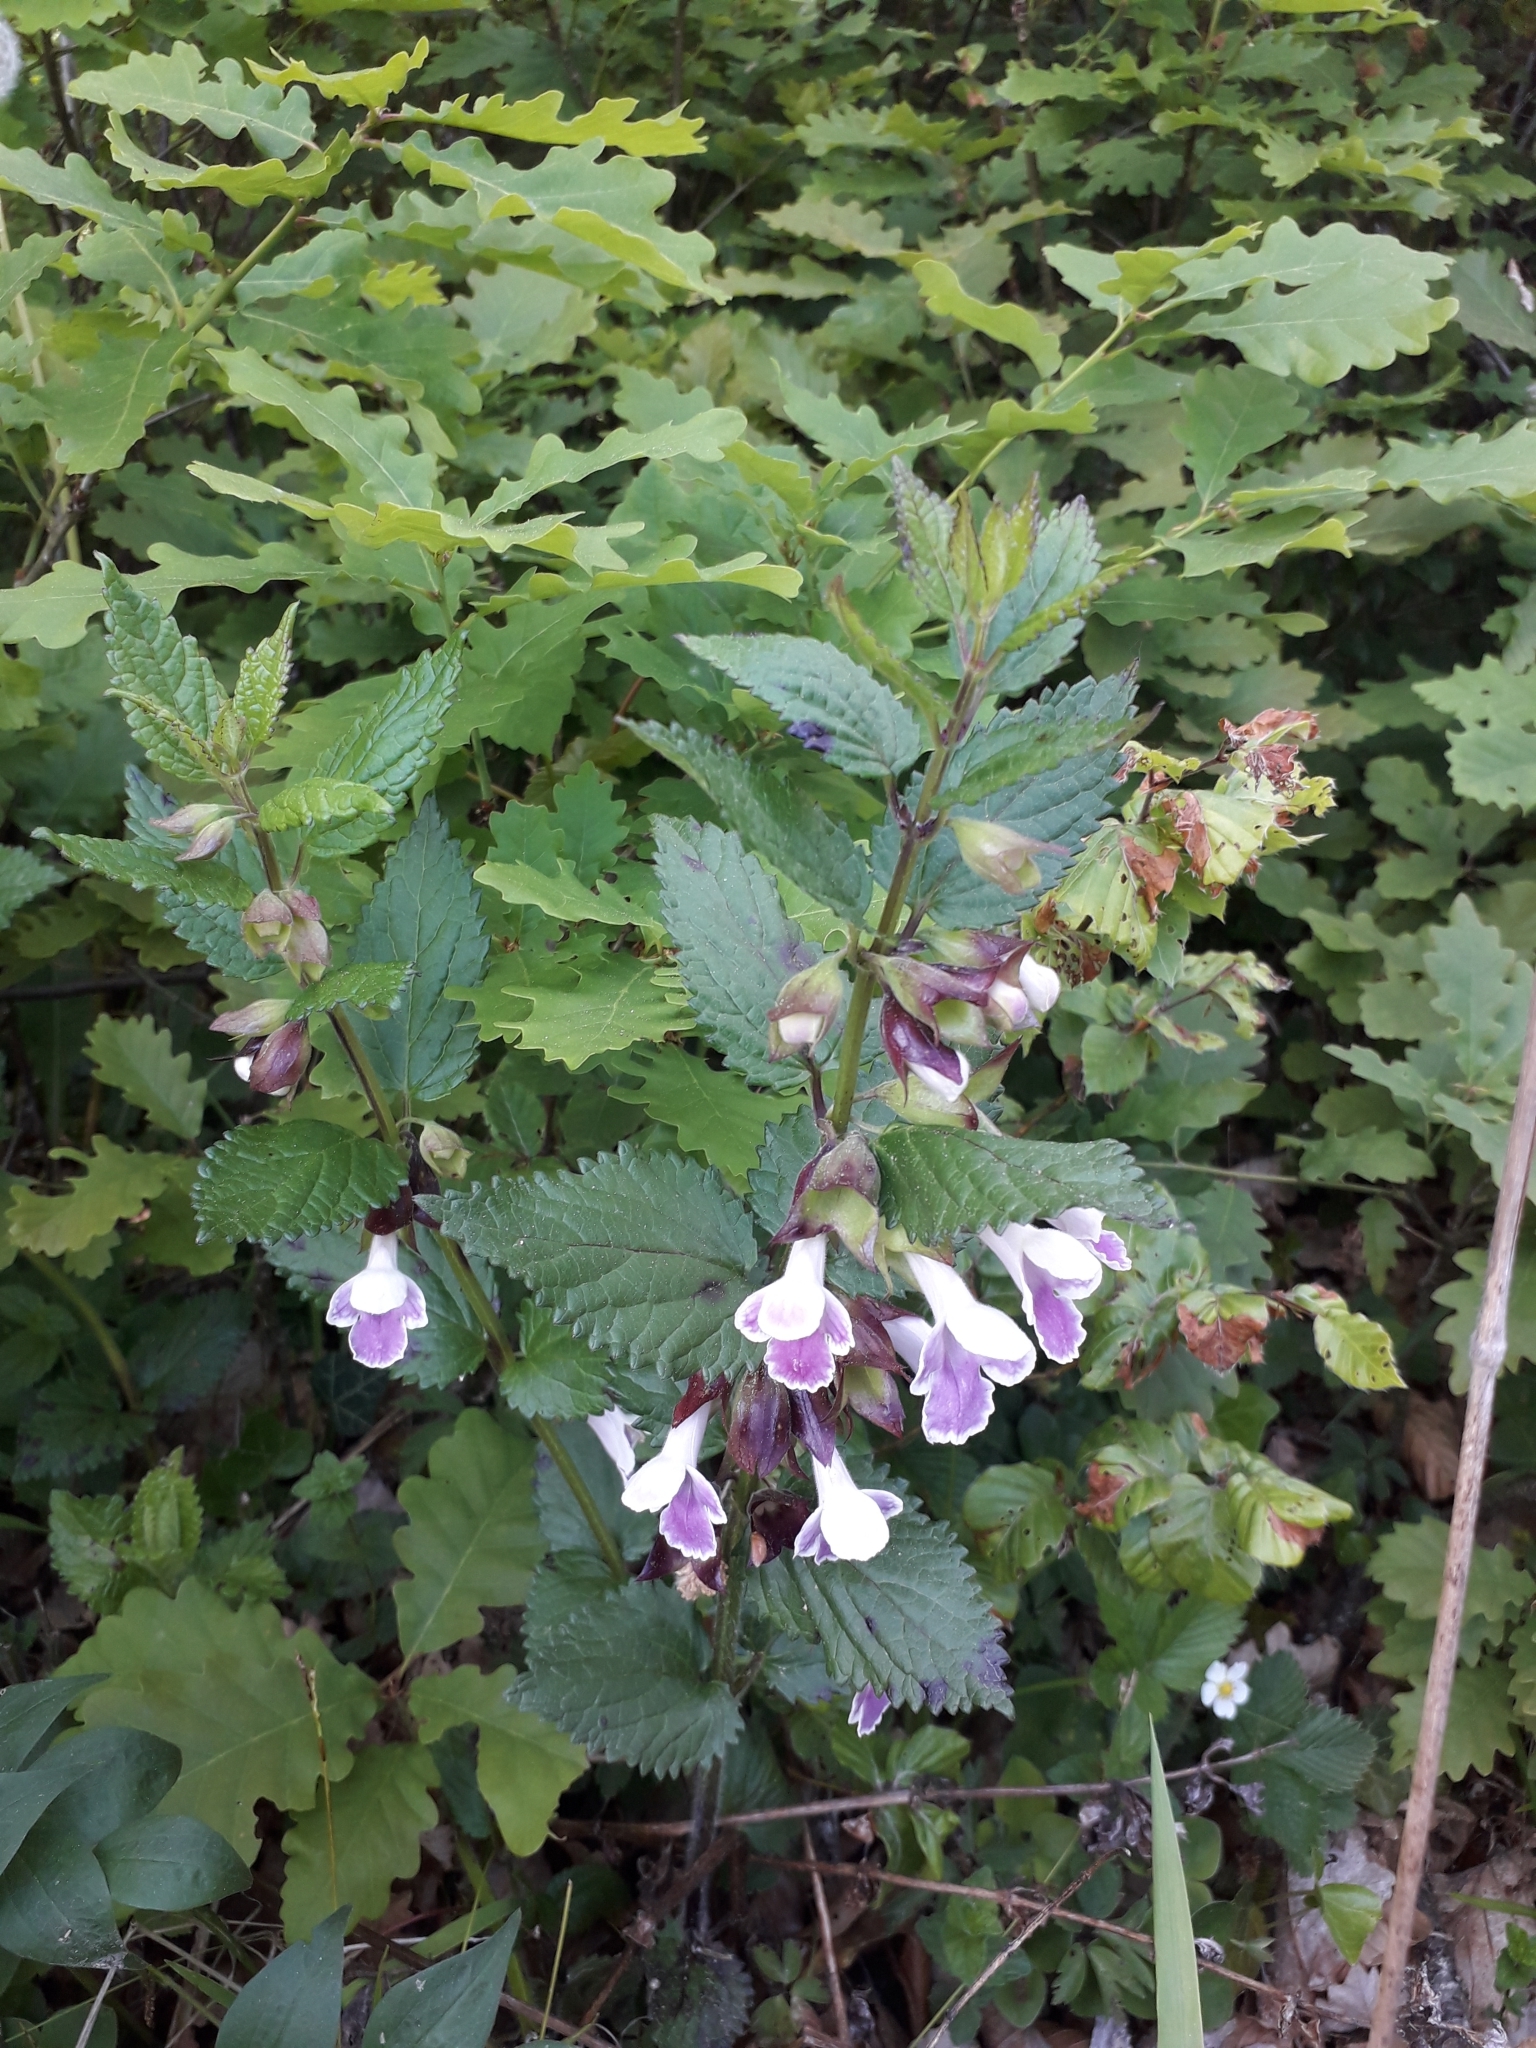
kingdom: Plantae
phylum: Tracheophyta
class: Magnoliopsida
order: Lamiales
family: Lamiaceae
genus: Melittis
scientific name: Melittis melissophyllum
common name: Bastard balm
